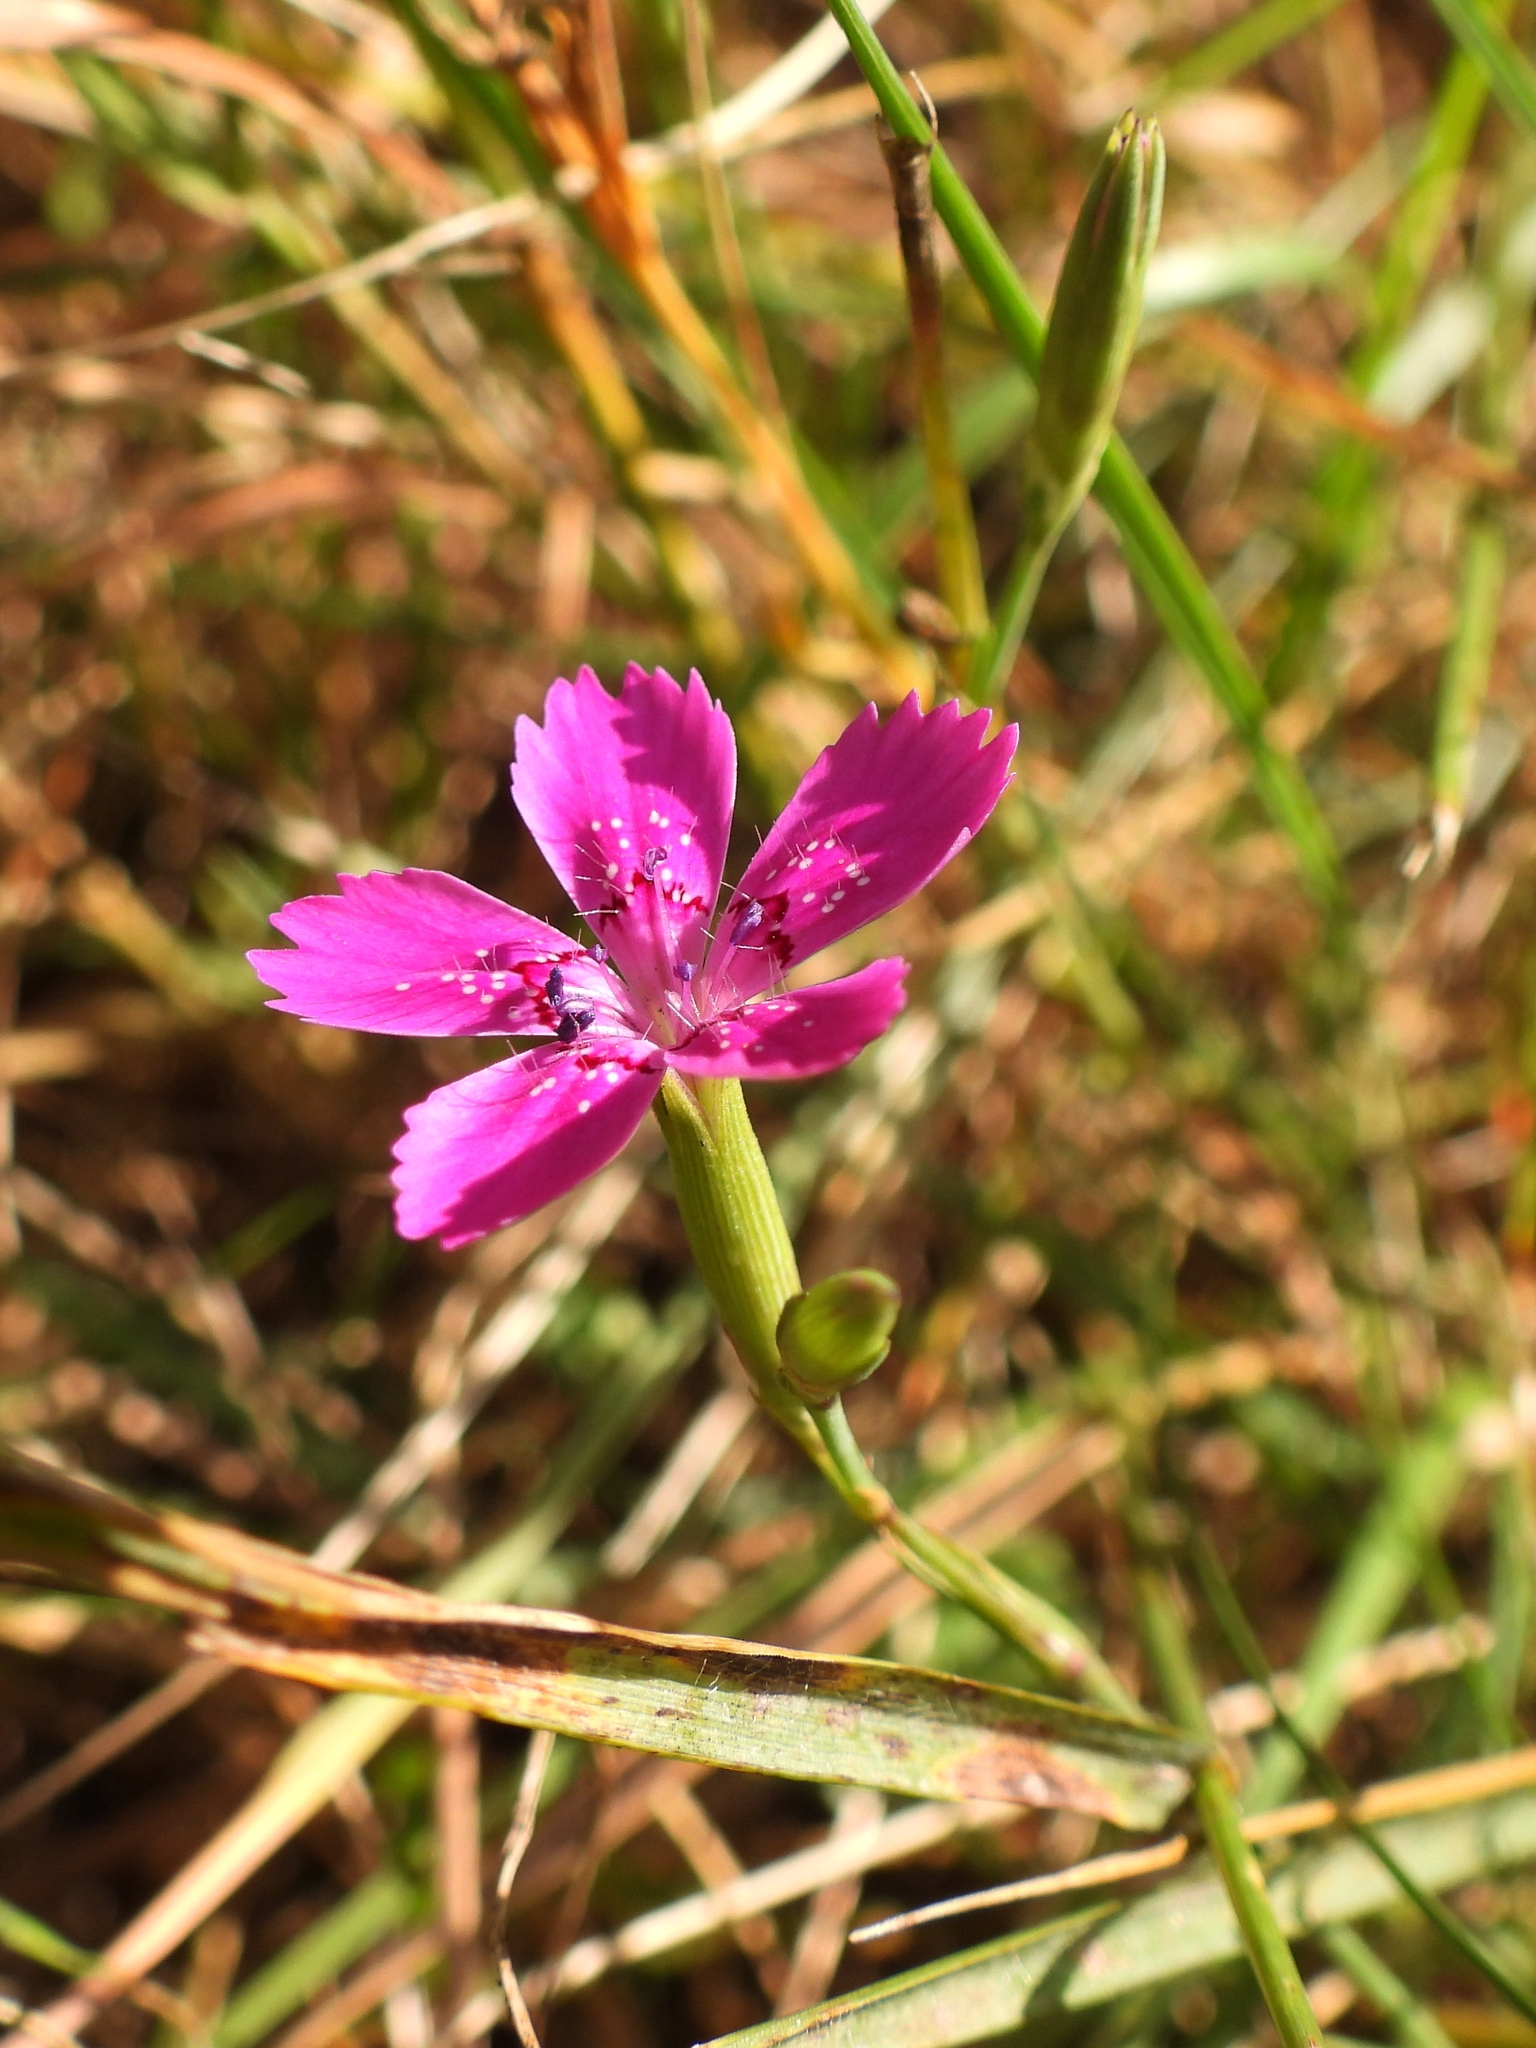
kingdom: Plantae
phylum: Tracheophyta
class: Magnoliopsida
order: Caryophyllales
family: Caryophyllaceae
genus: Dianthus
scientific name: Dianthus deltoides
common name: Maiden pink
